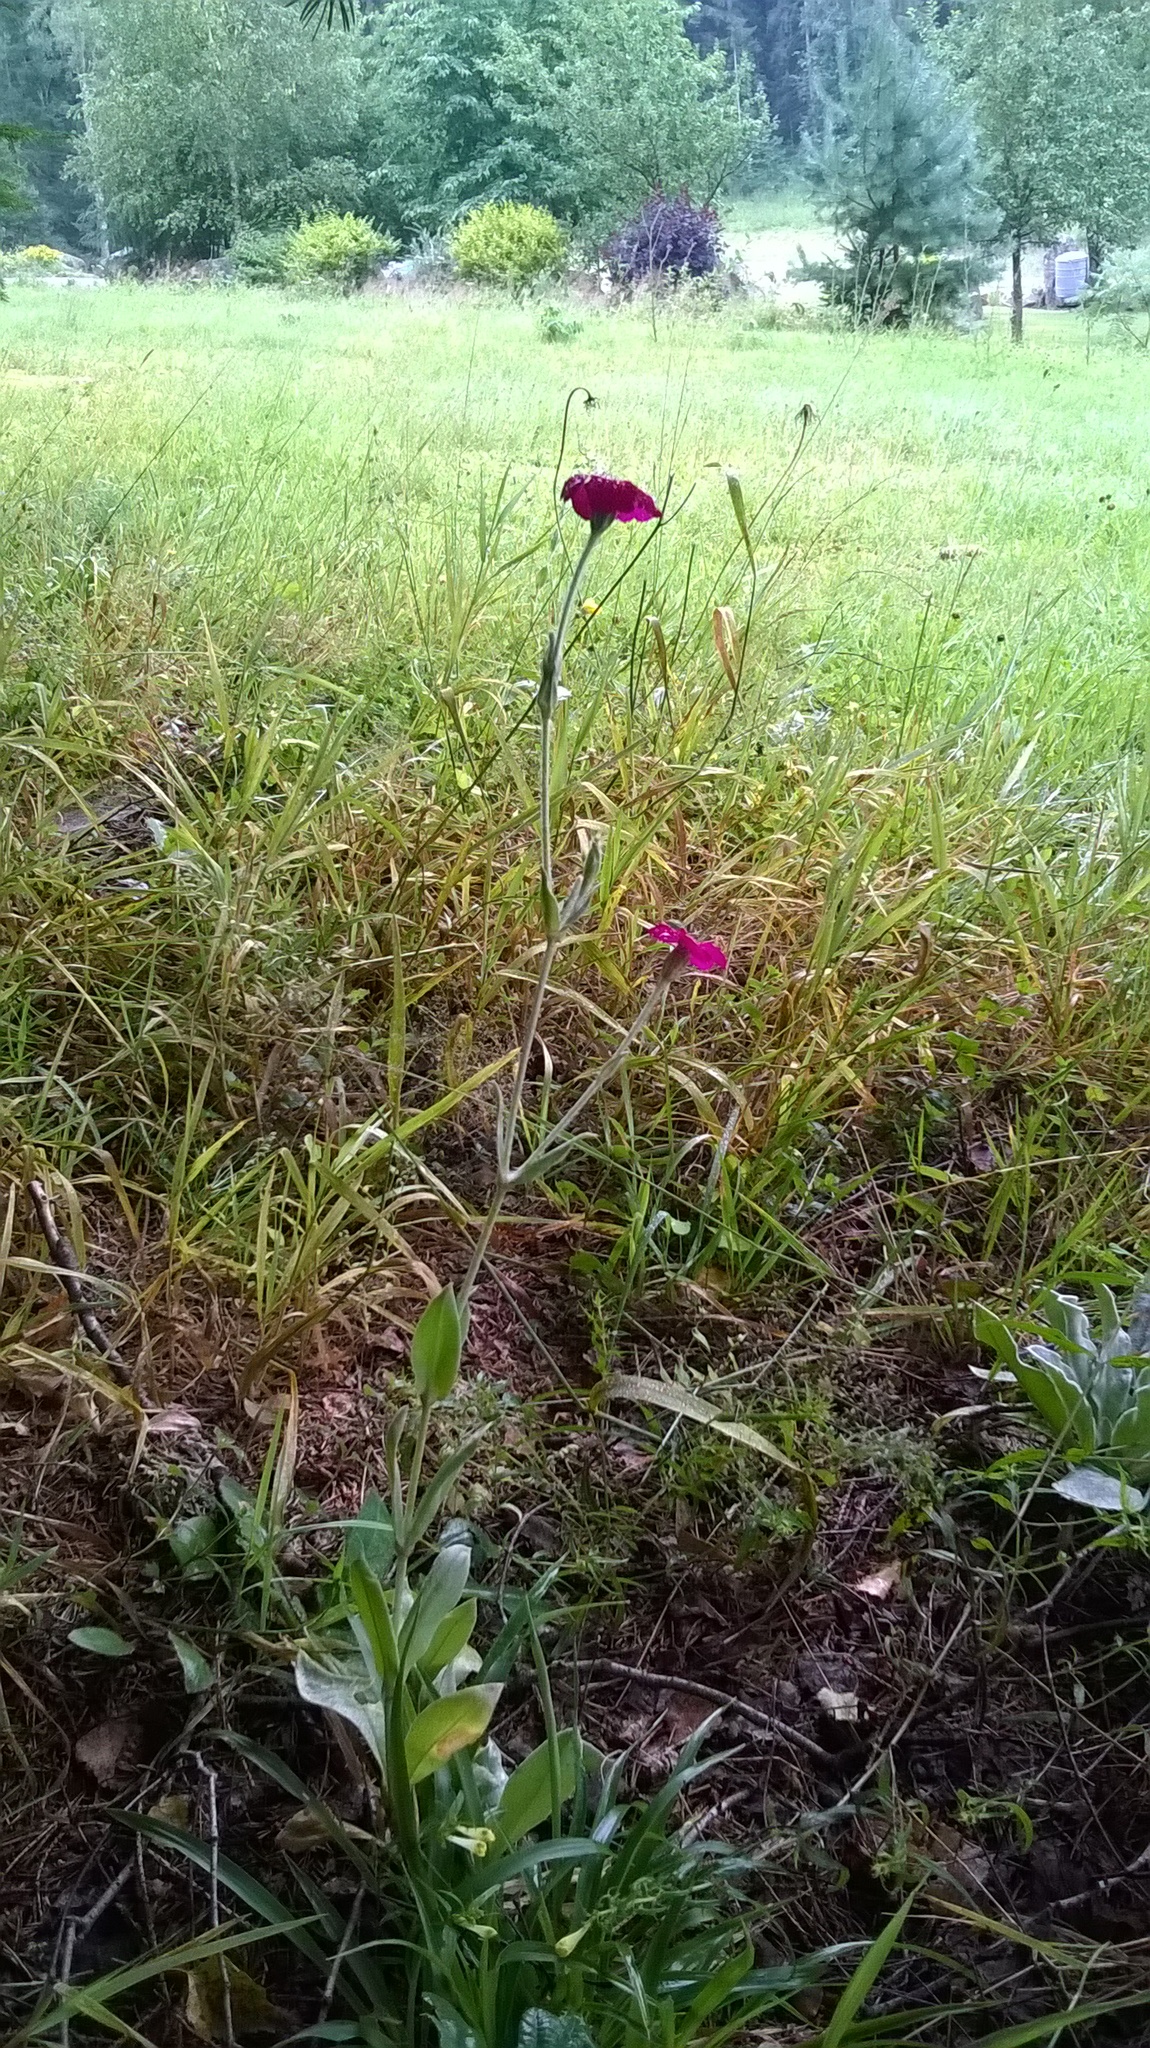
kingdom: Plantae
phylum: Tracheophyta
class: Magnoliopsida
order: Caryophyllales
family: Caryophyllaceae
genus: Silene
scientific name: Silene coronaria
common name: Rose campion
